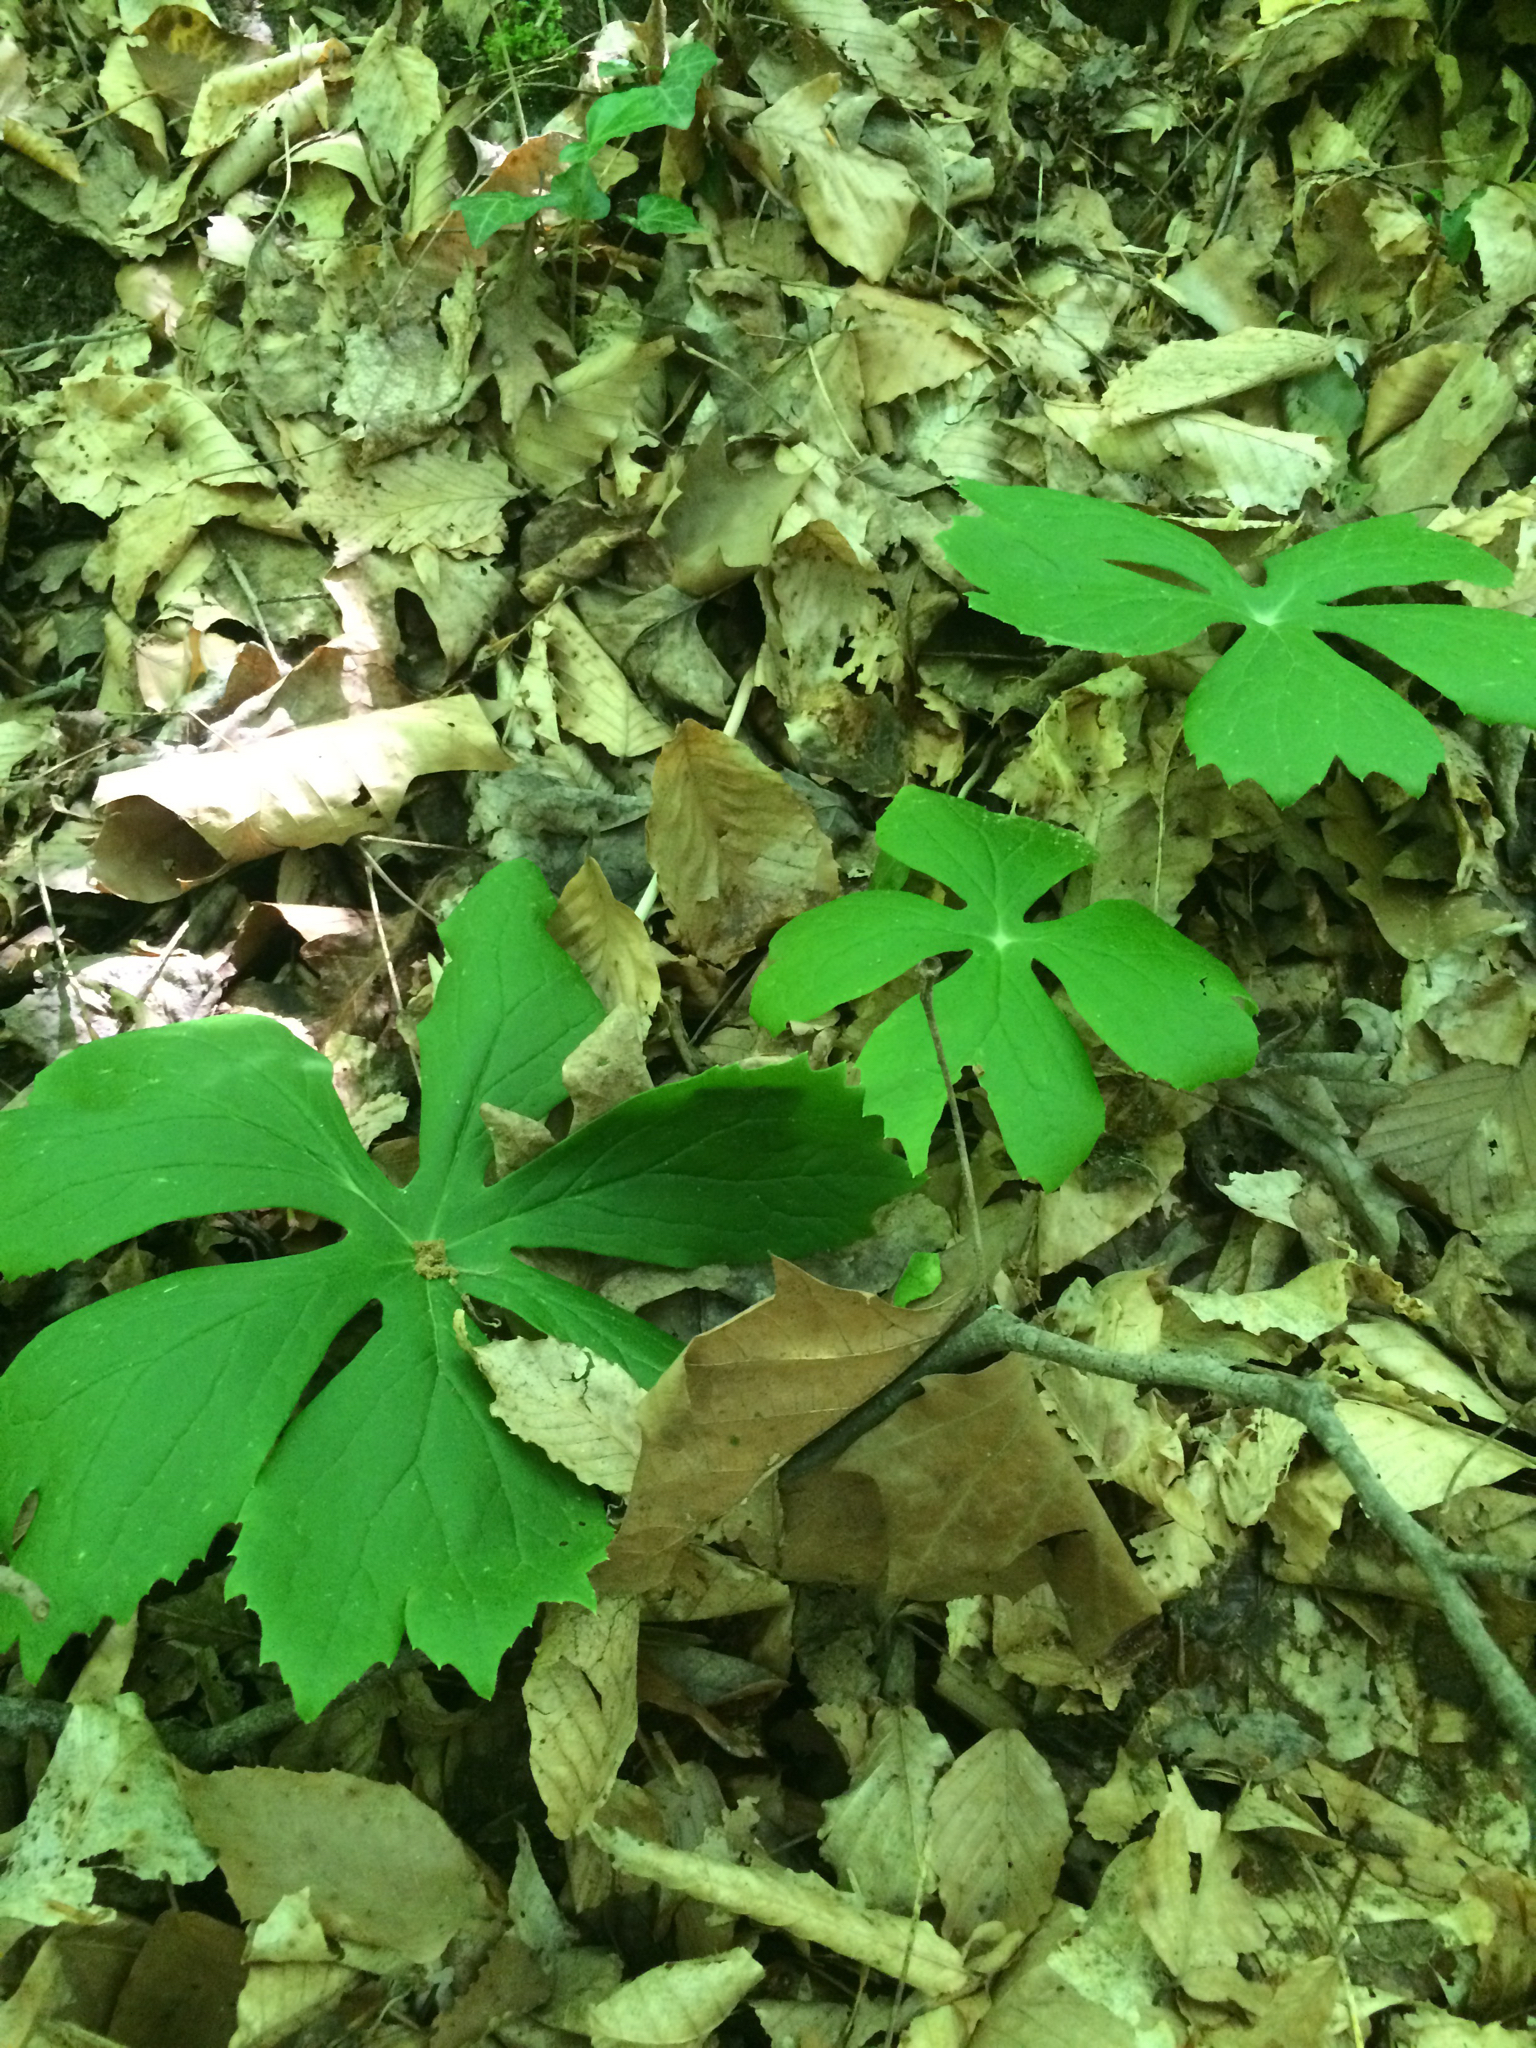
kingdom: Plantae
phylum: Tracheophyta
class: Magnoliopsida
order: Ranunculales
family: Berberidaceae
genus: Podophyllum
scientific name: Podophyllum peltatum
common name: Wild mandrake
